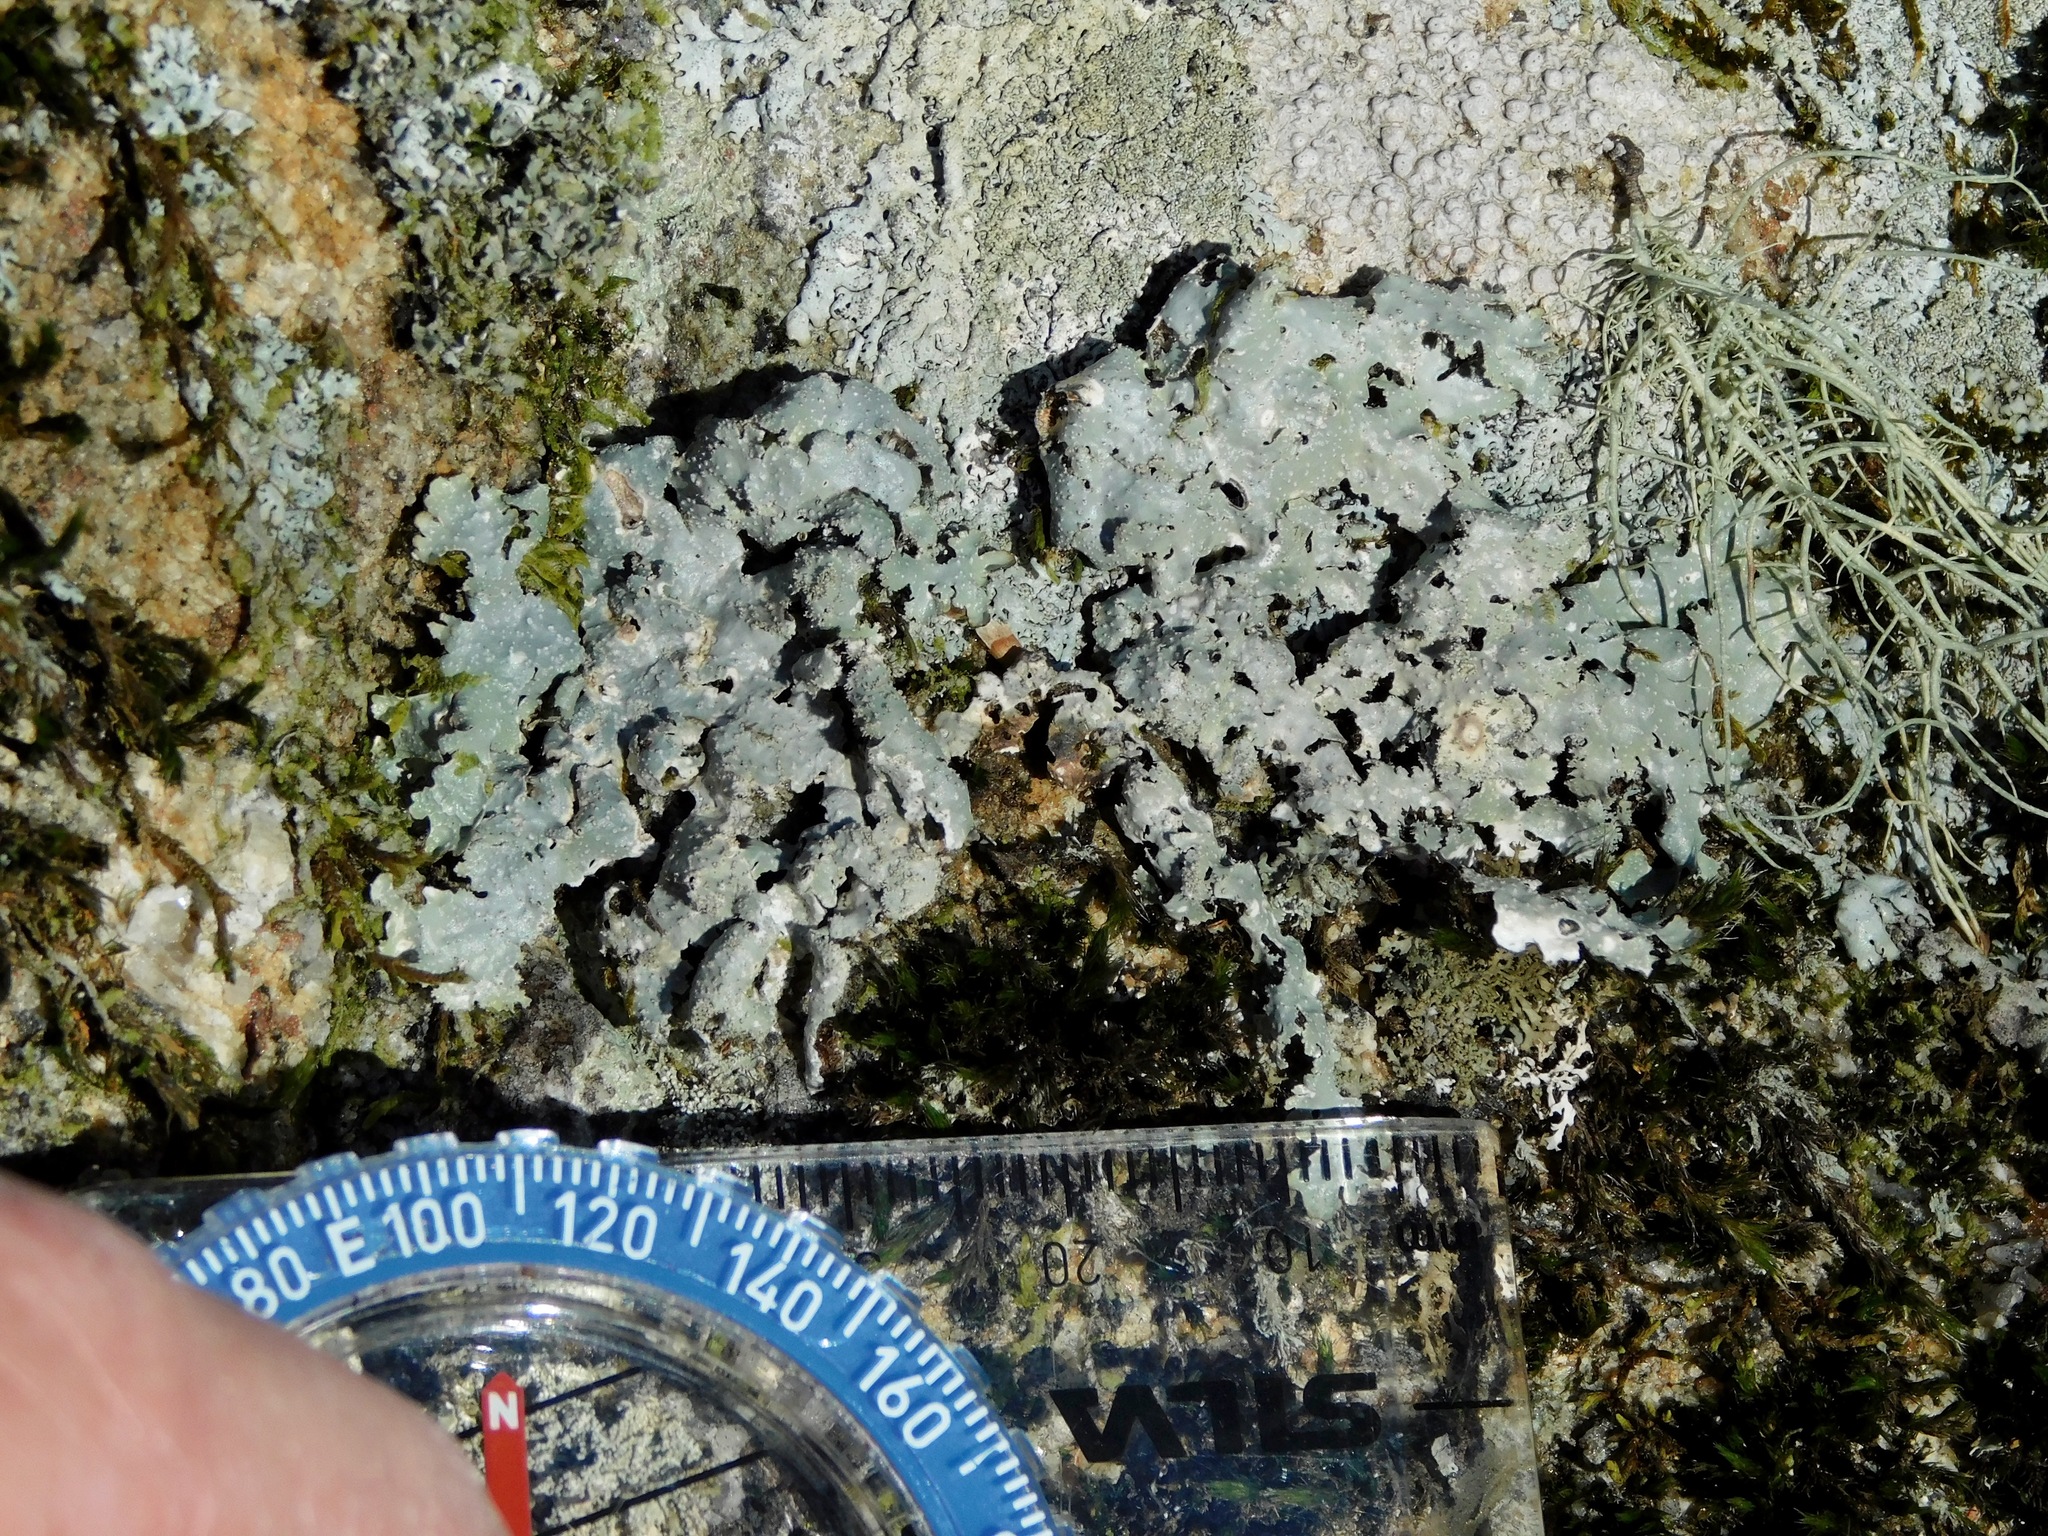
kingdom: Fungi
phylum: Ascomycota
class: Lecanoromycetes
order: Lecanorales
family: Parmeliaceae
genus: Punctelia
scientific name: Punctelia rudecta
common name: Rough speckled shield lichen
